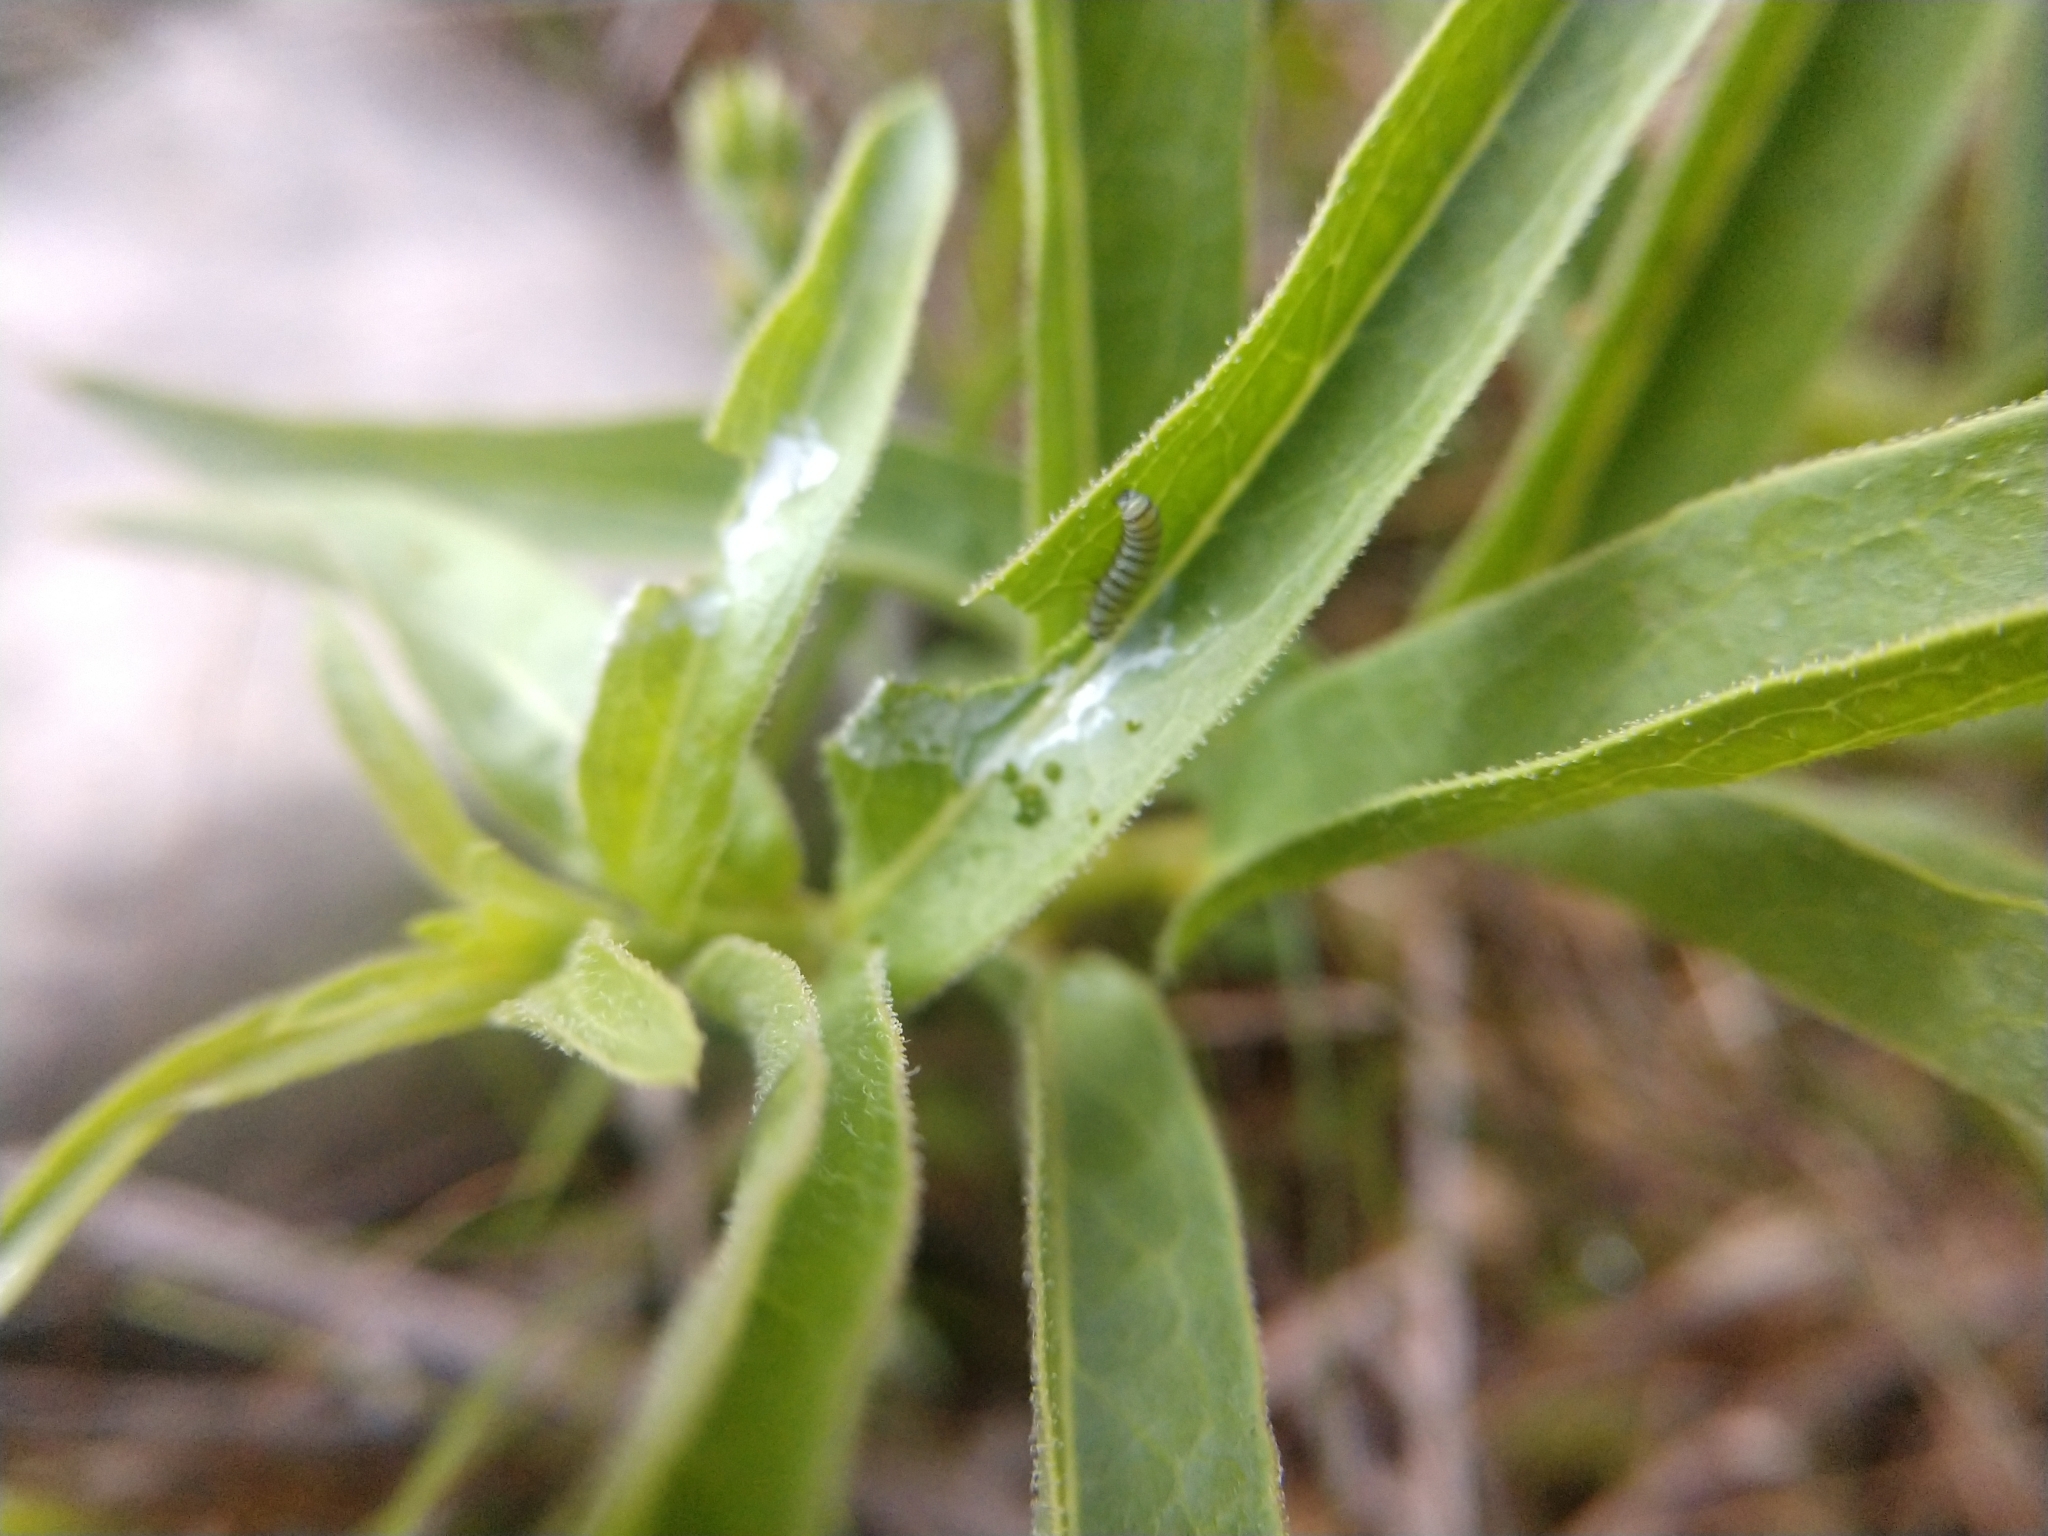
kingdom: Animalia
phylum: Arthropoda
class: Insecta
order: Lepidoptera
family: Nymphalidae
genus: Danaus
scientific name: Danaus plexippus
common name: Monarch
